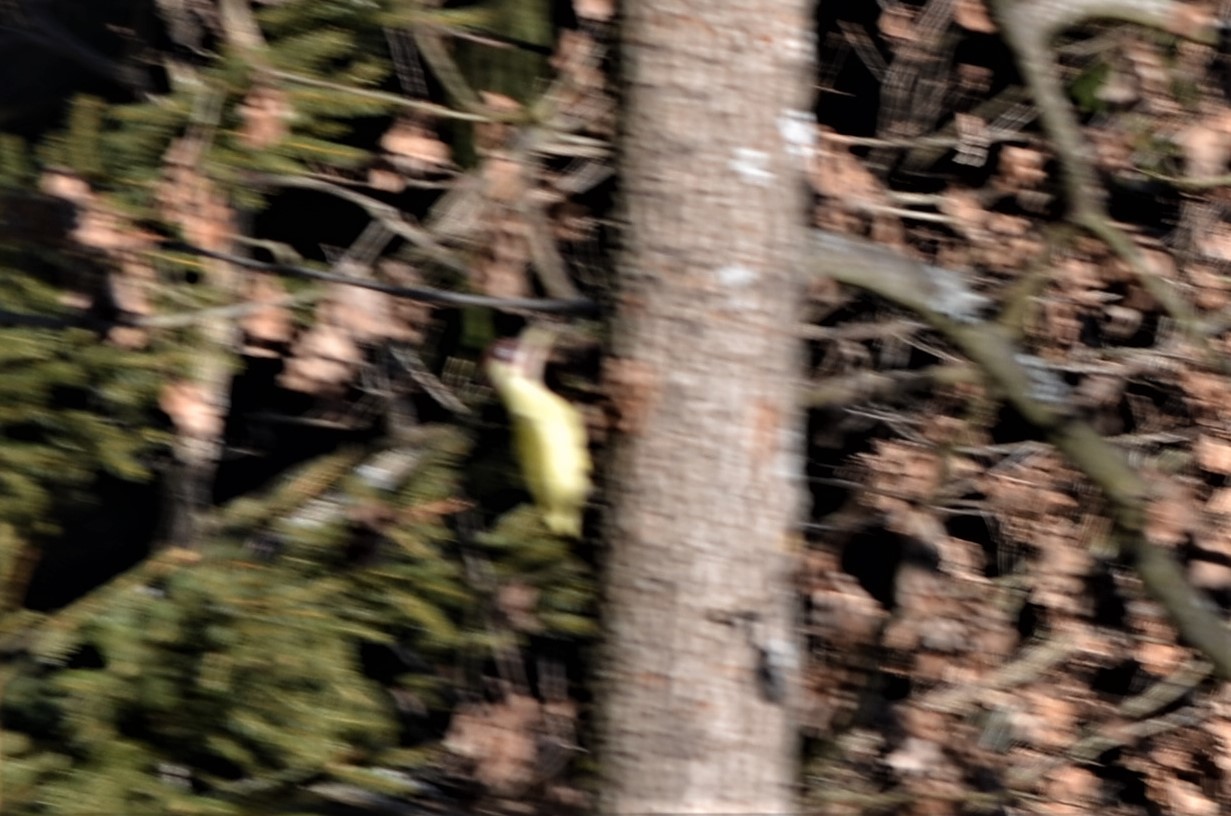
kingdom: Animalia
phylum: Chordata
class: Aves
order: Piciformes
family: Picidae
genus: Picus
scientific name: Picus viridis
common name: European green woodpecker
